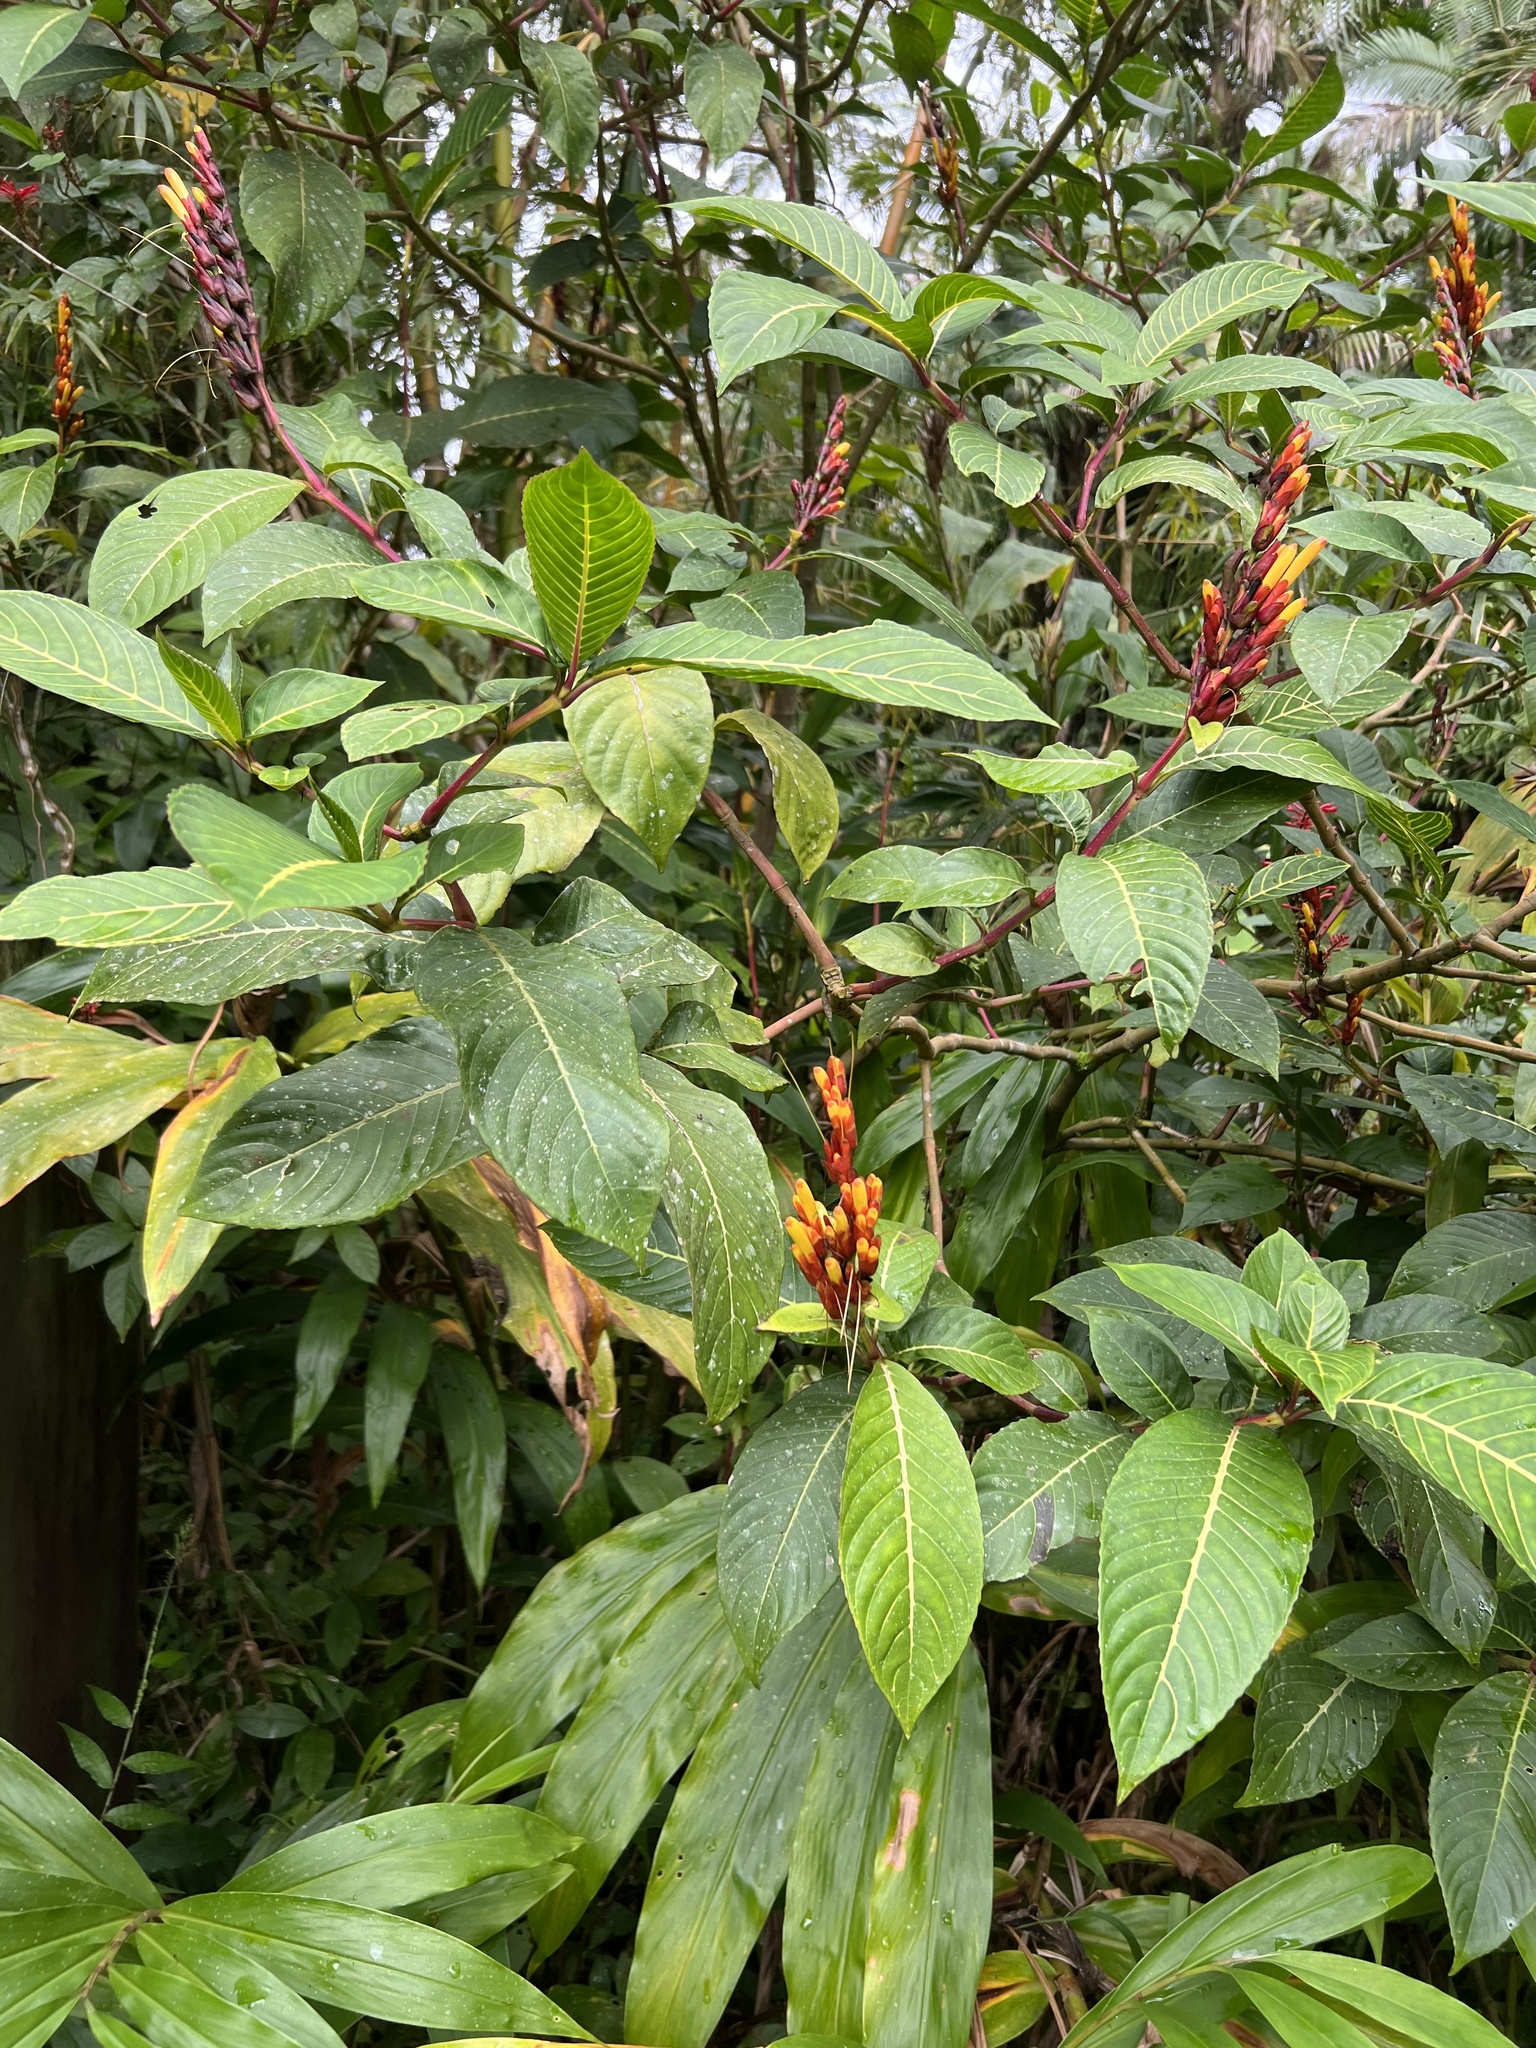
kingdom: Plantae
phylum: Tracheophyta
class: Magnoliopsida
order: Lamiales
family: Acanthaceae
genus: Sanchezia
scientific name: Sanchezia parvibracteata
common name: Sanchezia
